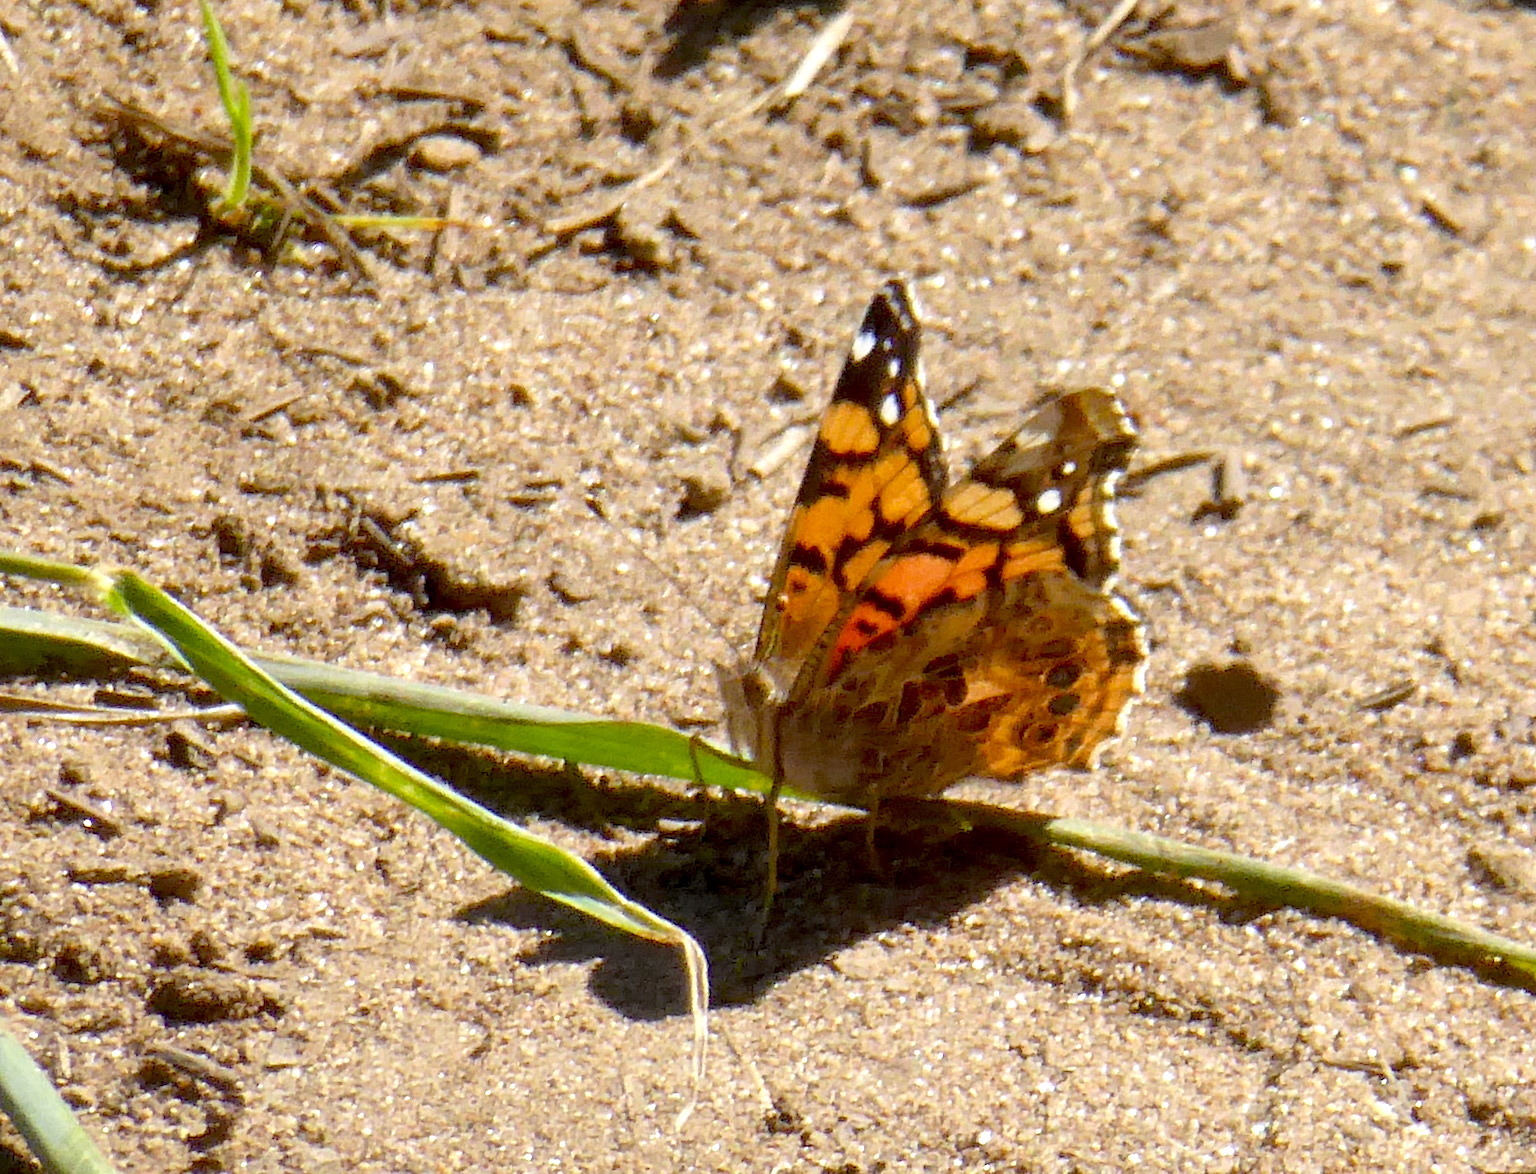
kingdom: Animalia
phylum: Arthropoda
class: Insecta
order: Lepidoptera
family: Nymphalidae
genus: Vanessa
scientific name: Vanessa annabella
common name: West coast lady
